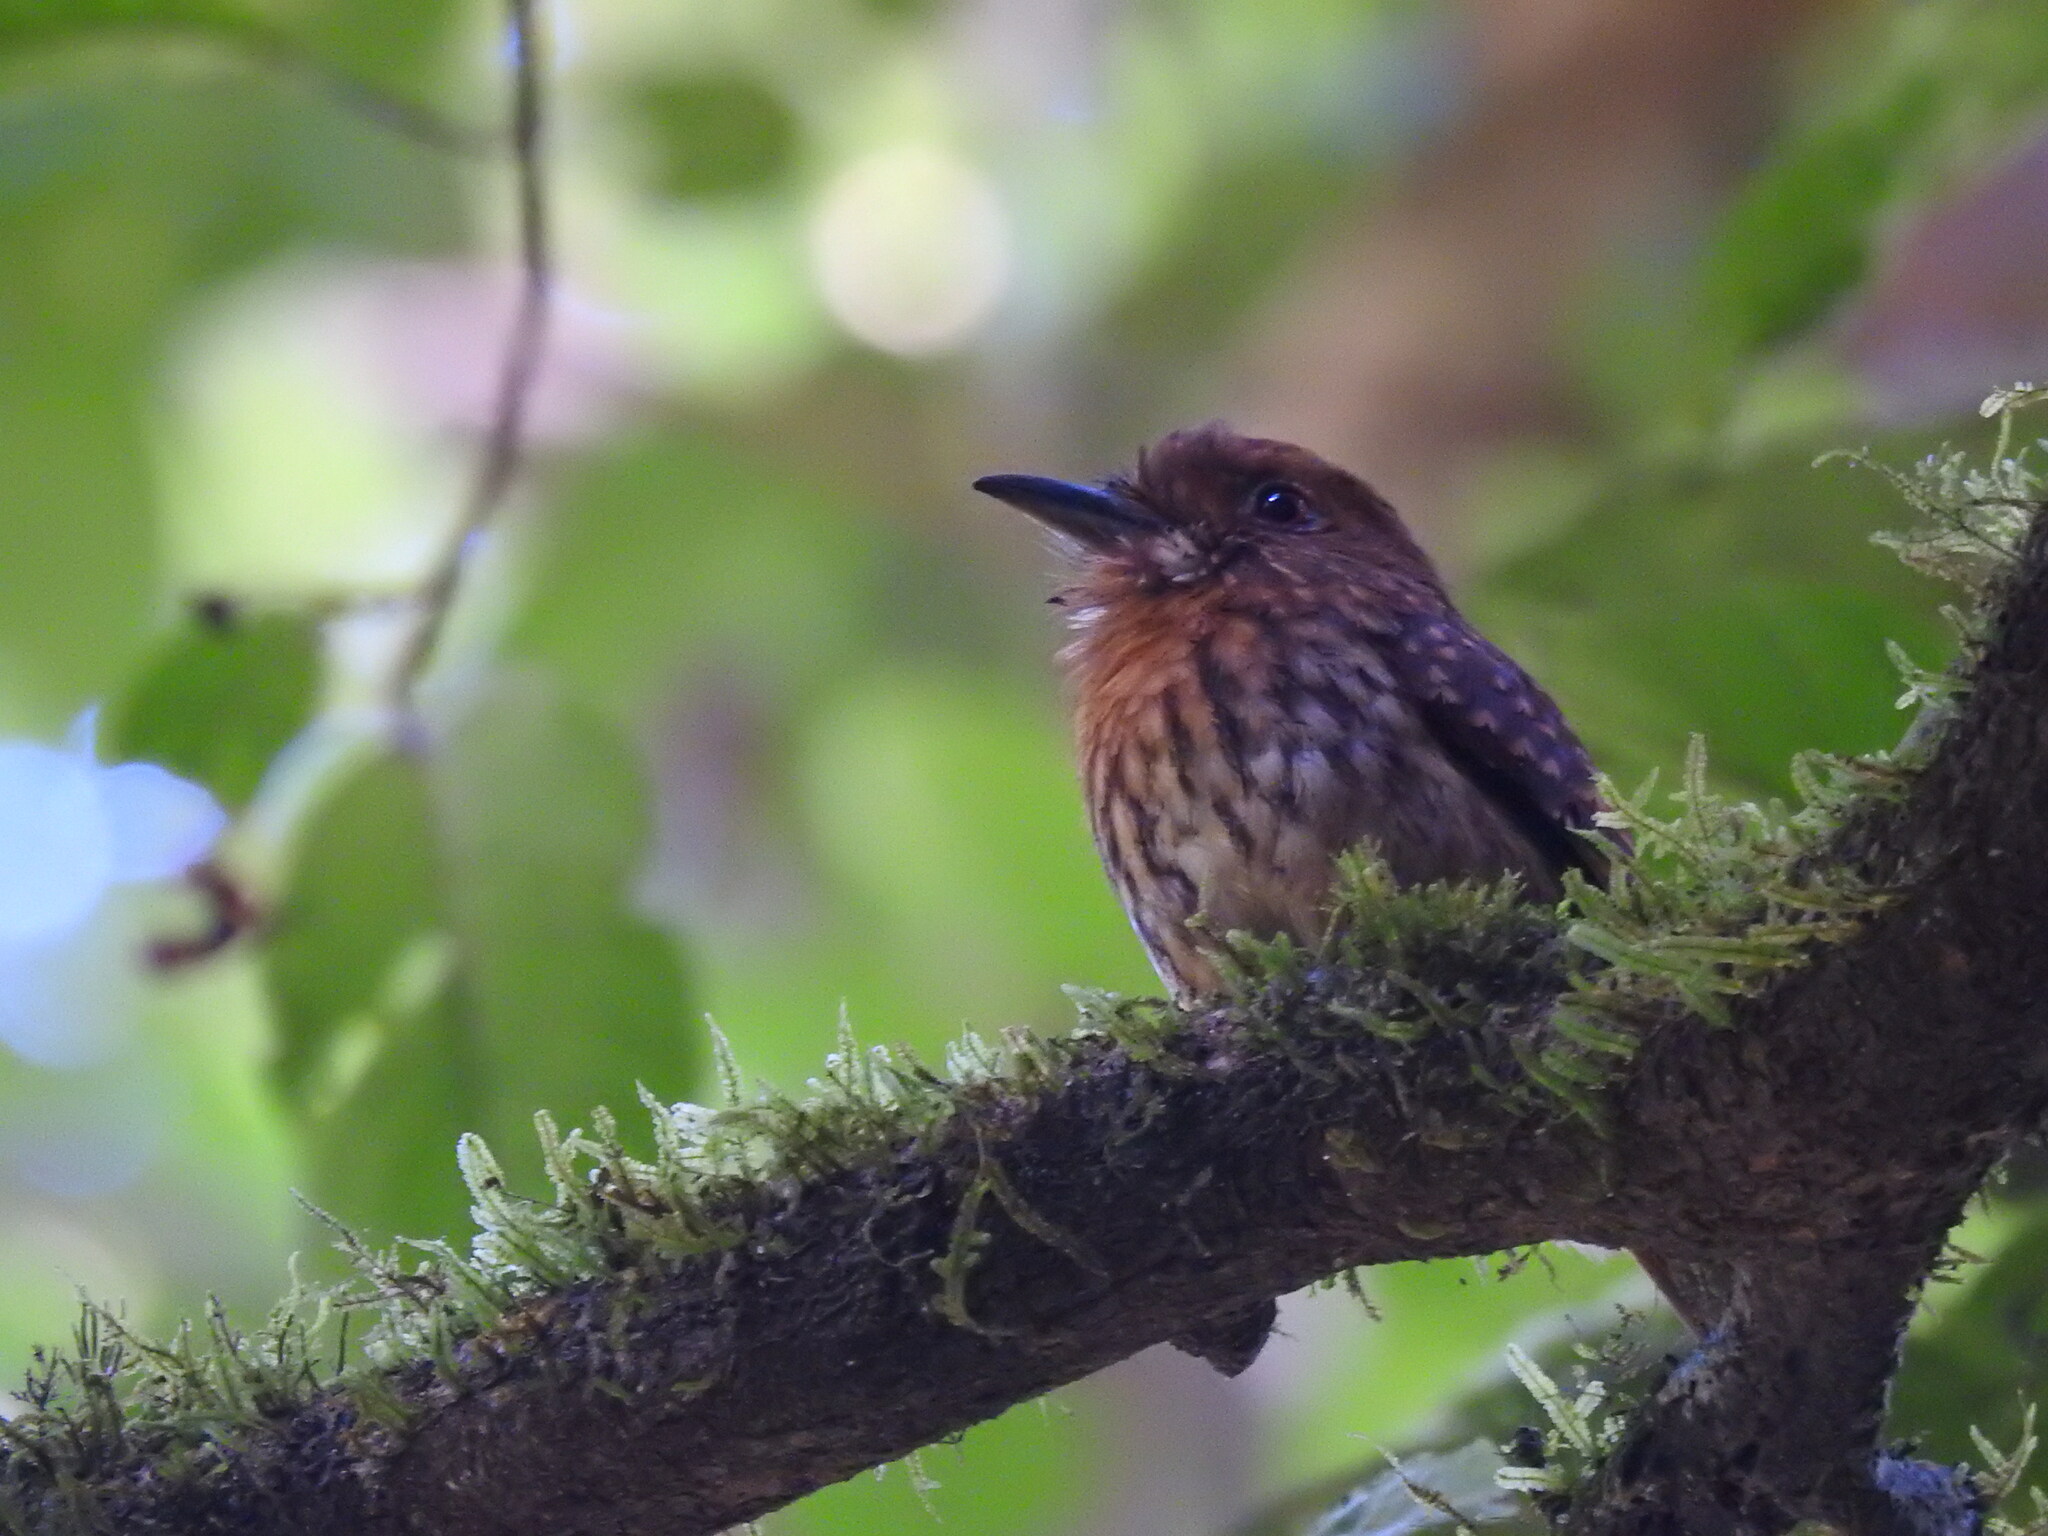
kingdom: Animalia
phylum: Chordata
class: Aves
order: Piciformes
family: Bucconidae
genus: Malacoptila
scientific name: Malacoptila panamensis
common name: White-whiskered puffbird
